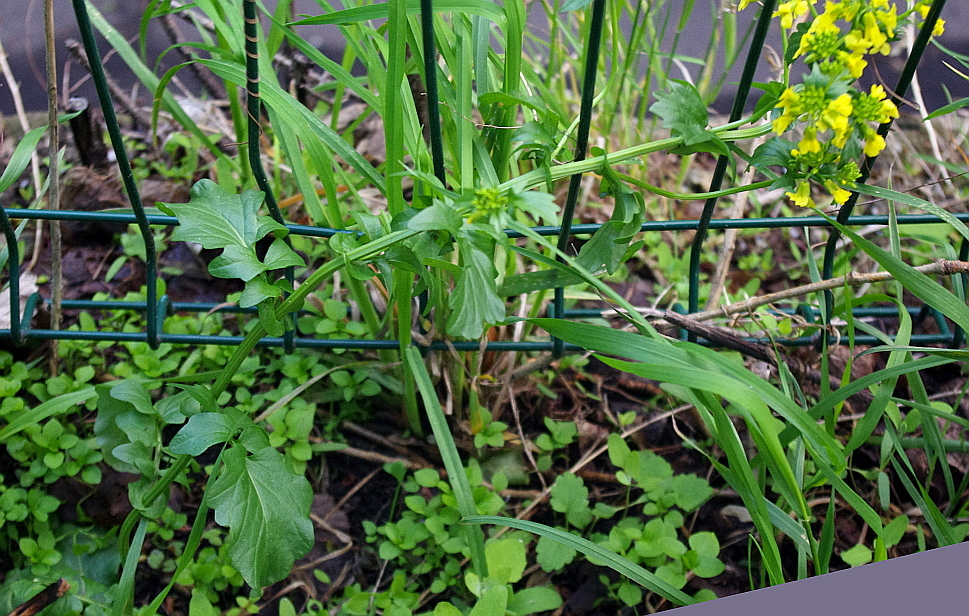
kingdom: Plantae
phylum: Tracheophyta
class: Magnoliopsida
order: Brassicales
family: Brassicaceae
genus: Barbarea
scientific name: Barbarea vulgaris
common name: Cressy-greens
